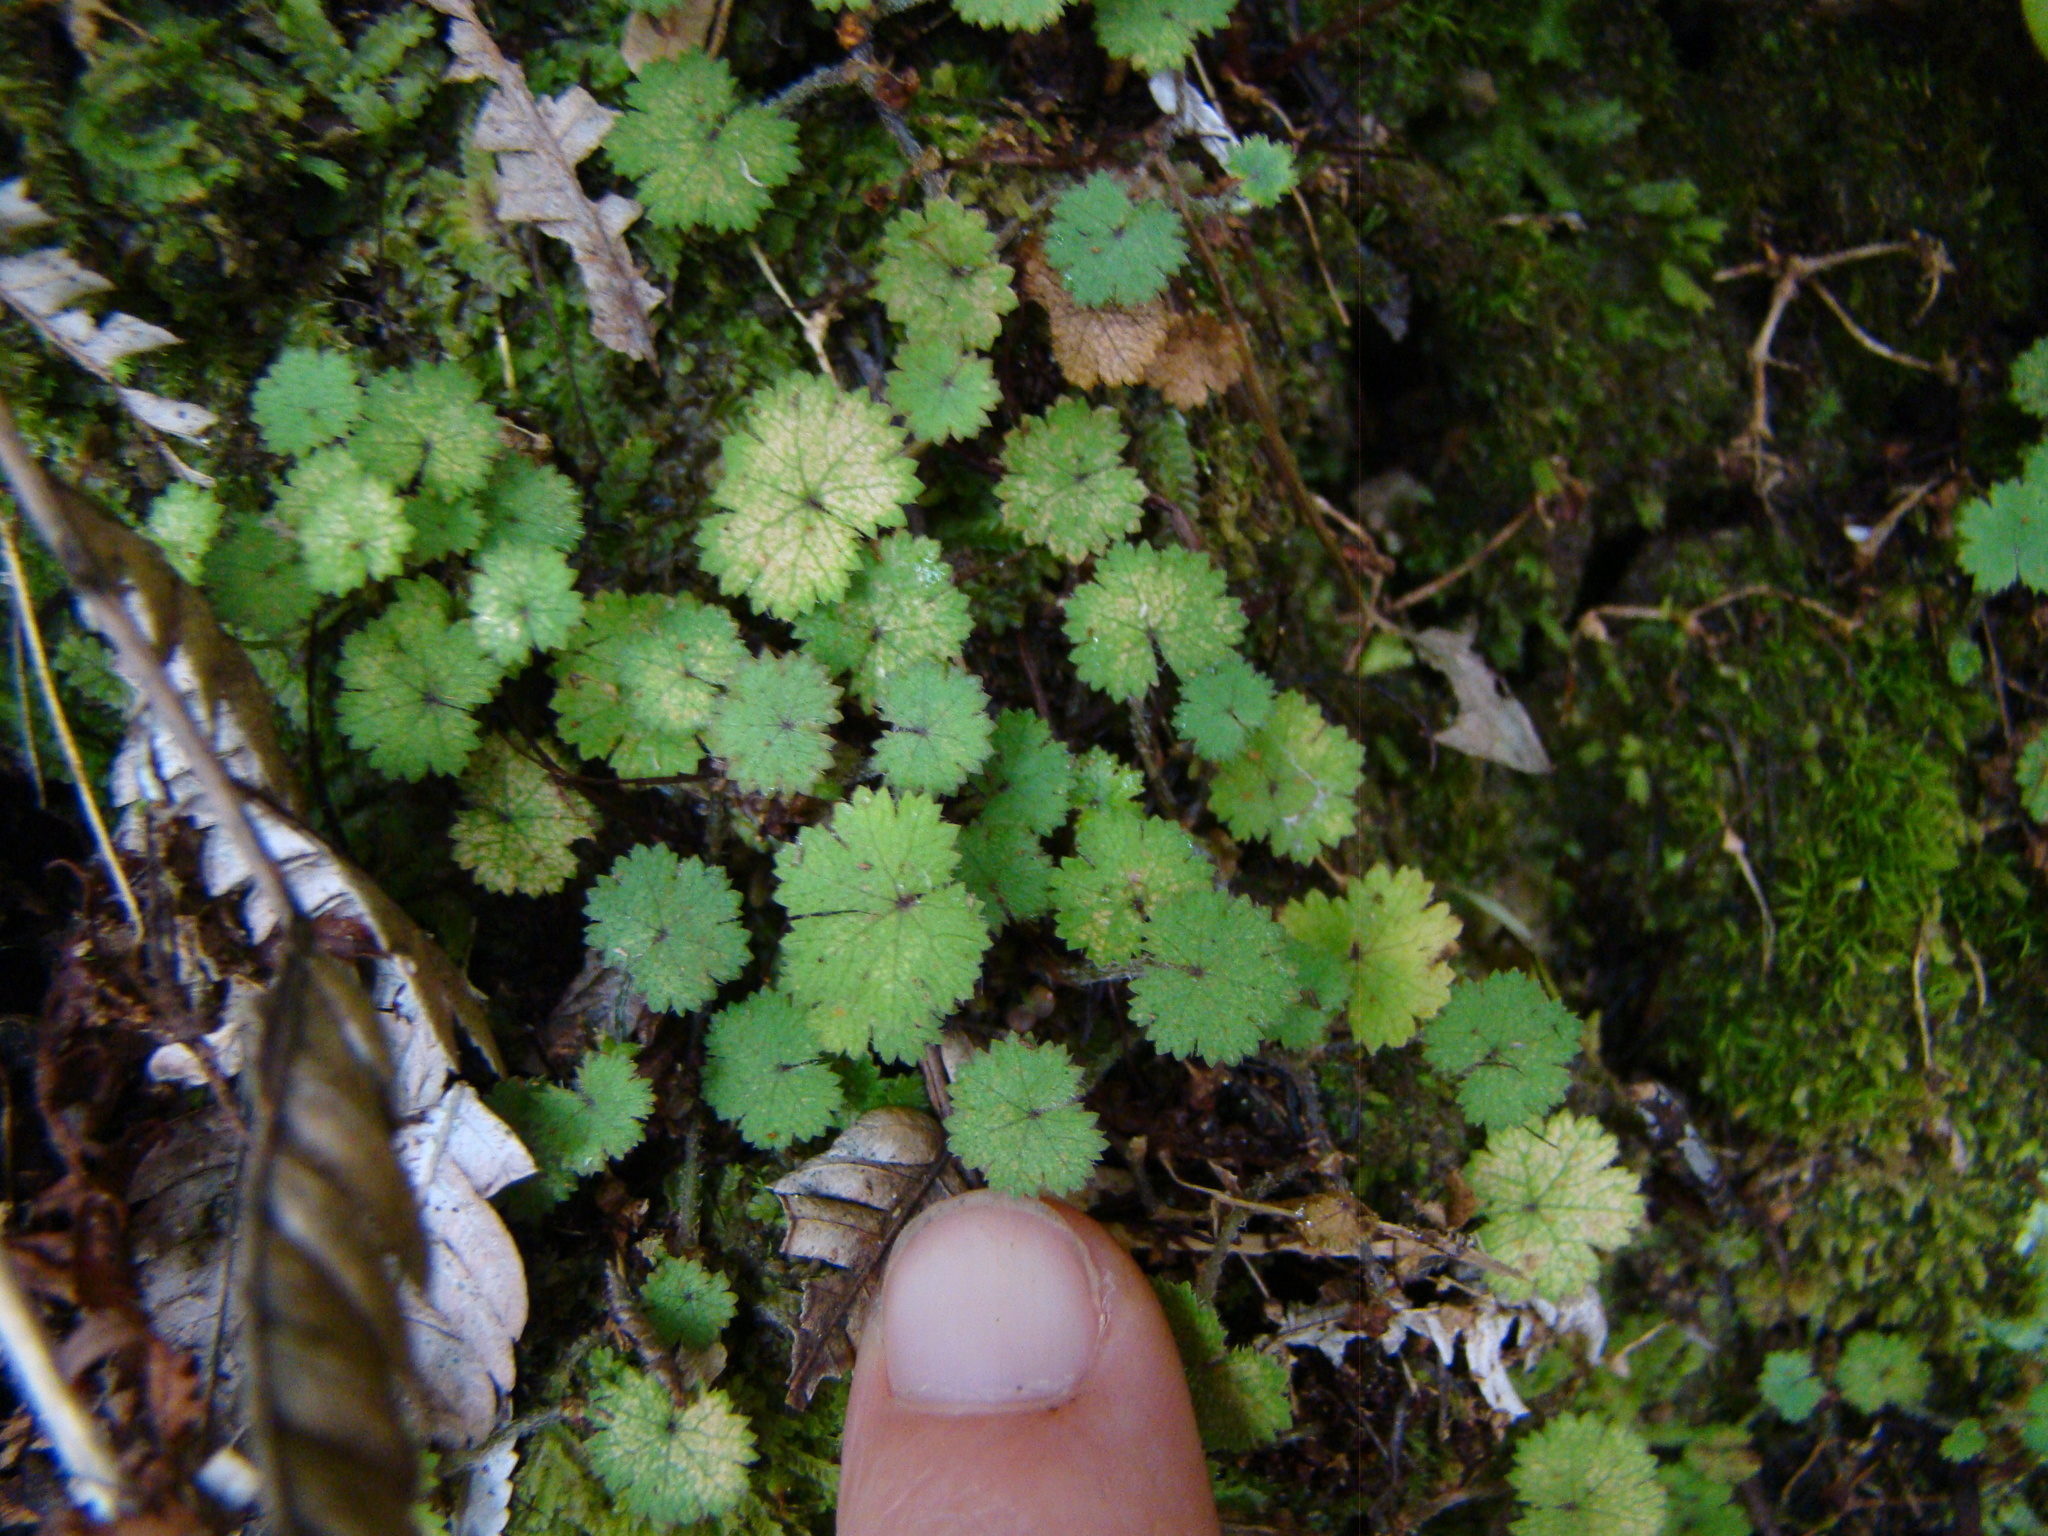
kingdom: Plantae
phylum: Tracheophyta
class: Magnoliopsida
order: Apiales
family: Araliaceae
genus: Hydrocotyle
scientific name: Hydrocotyle moschata
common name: Hairy pennywort
